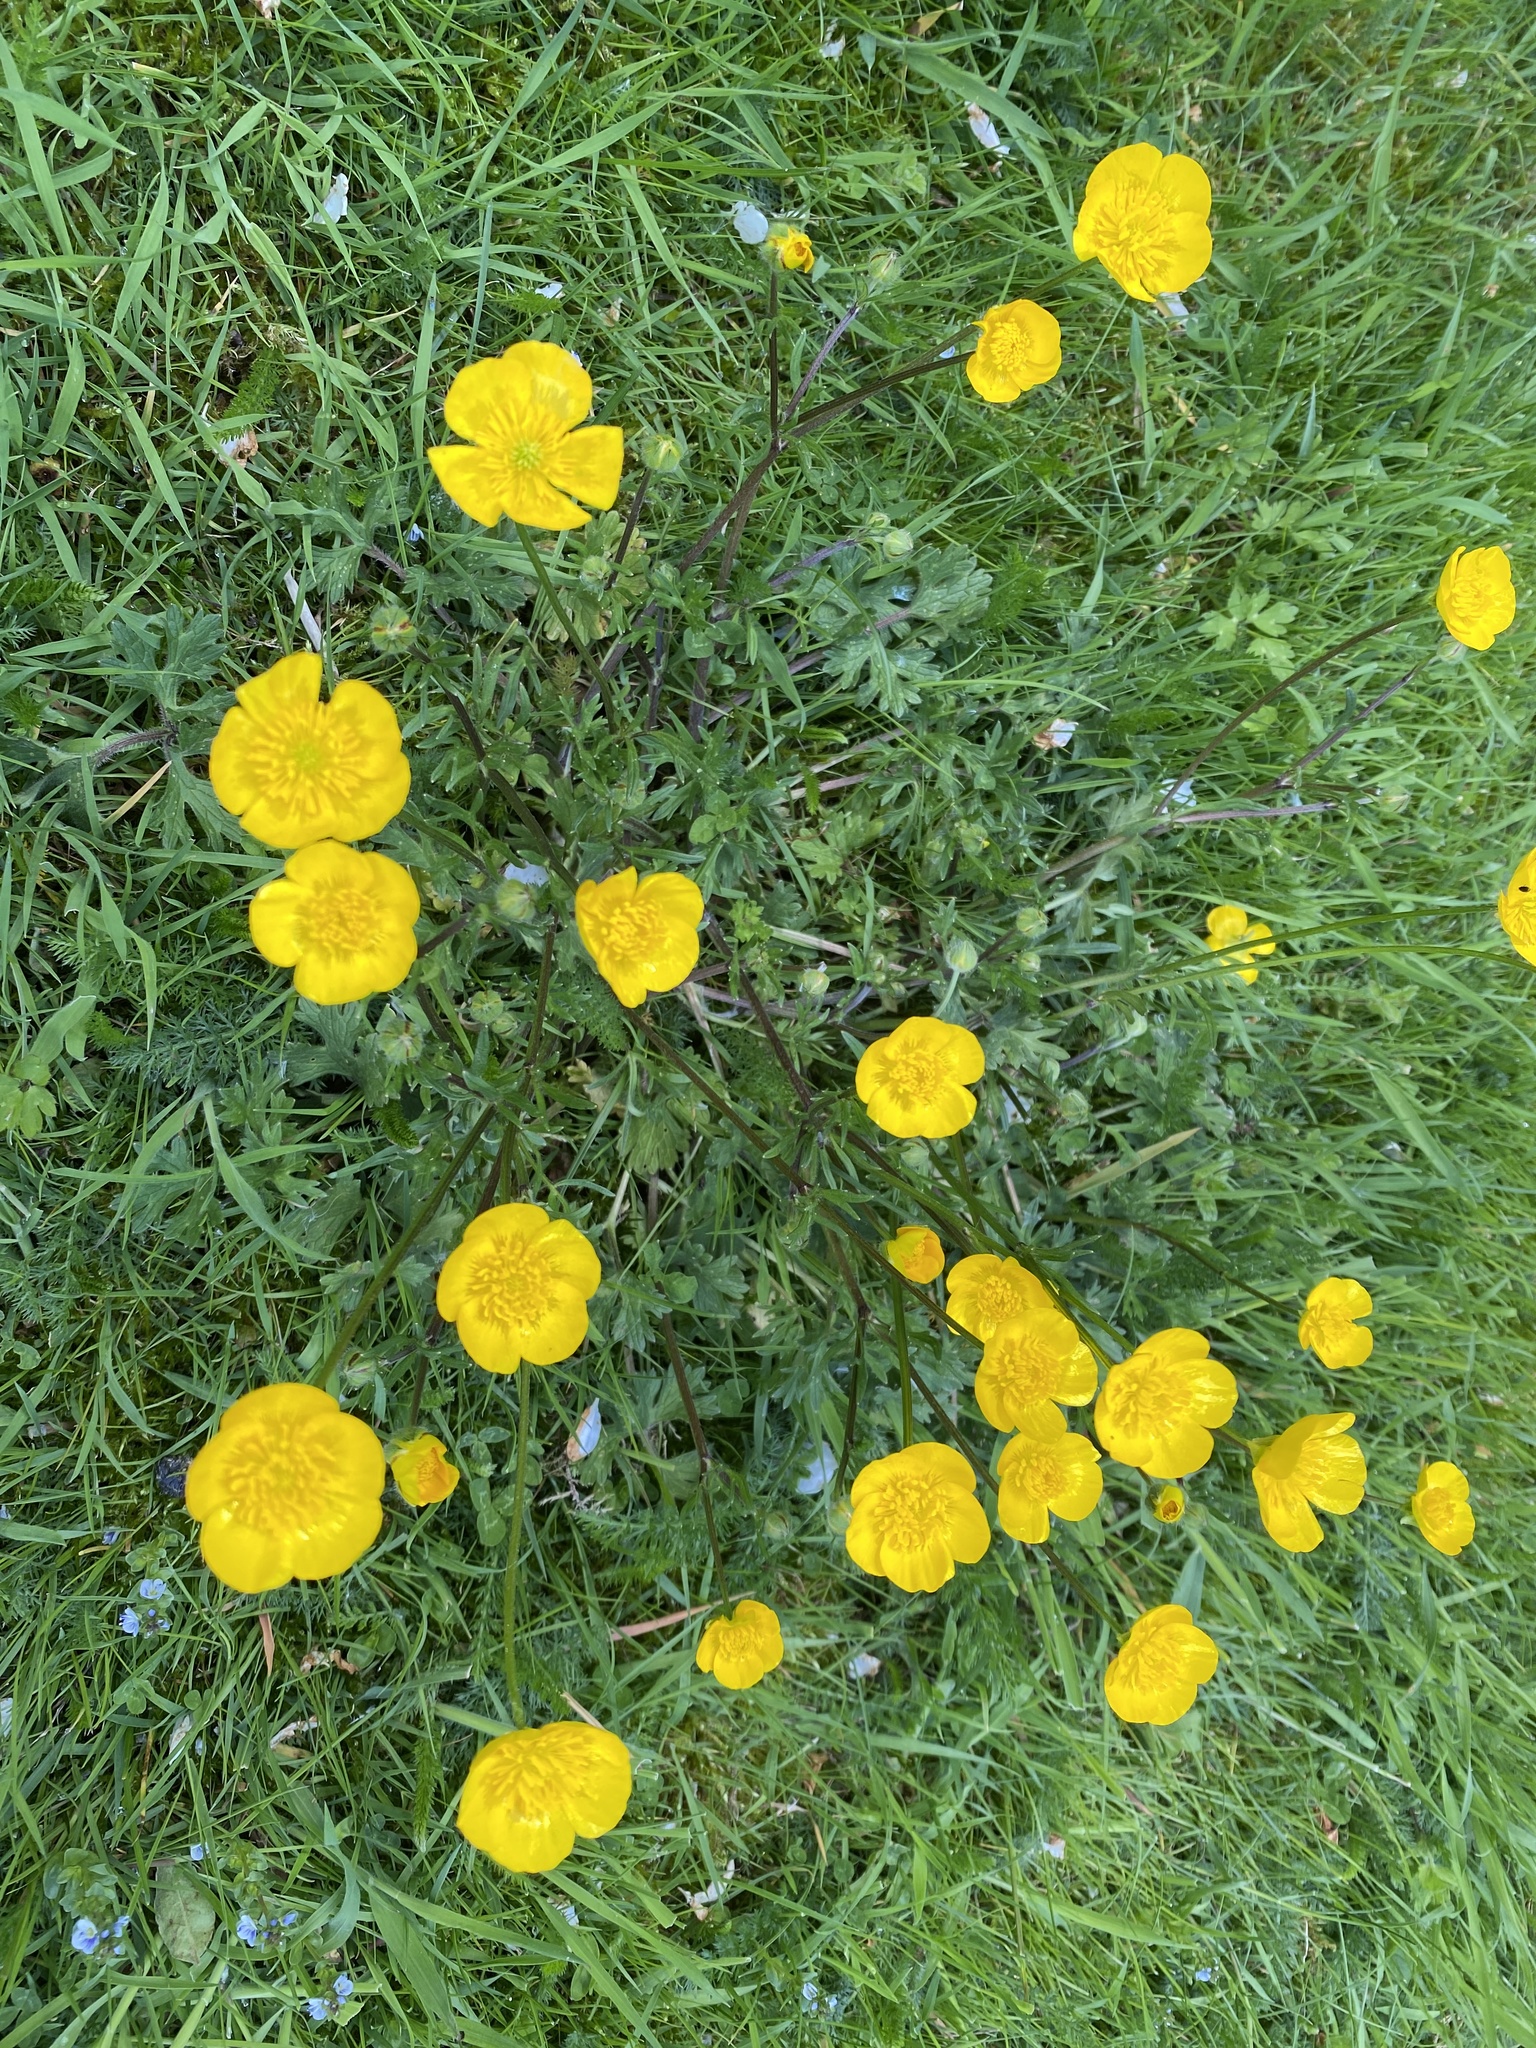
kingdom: Plantae
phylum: Tracheophyta
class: Magnoliopsida
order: Ranunculales
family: Ranunculaceae
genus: Ranunculus
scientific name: Ranunculus bulbosus
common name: Bulbous buttercup
